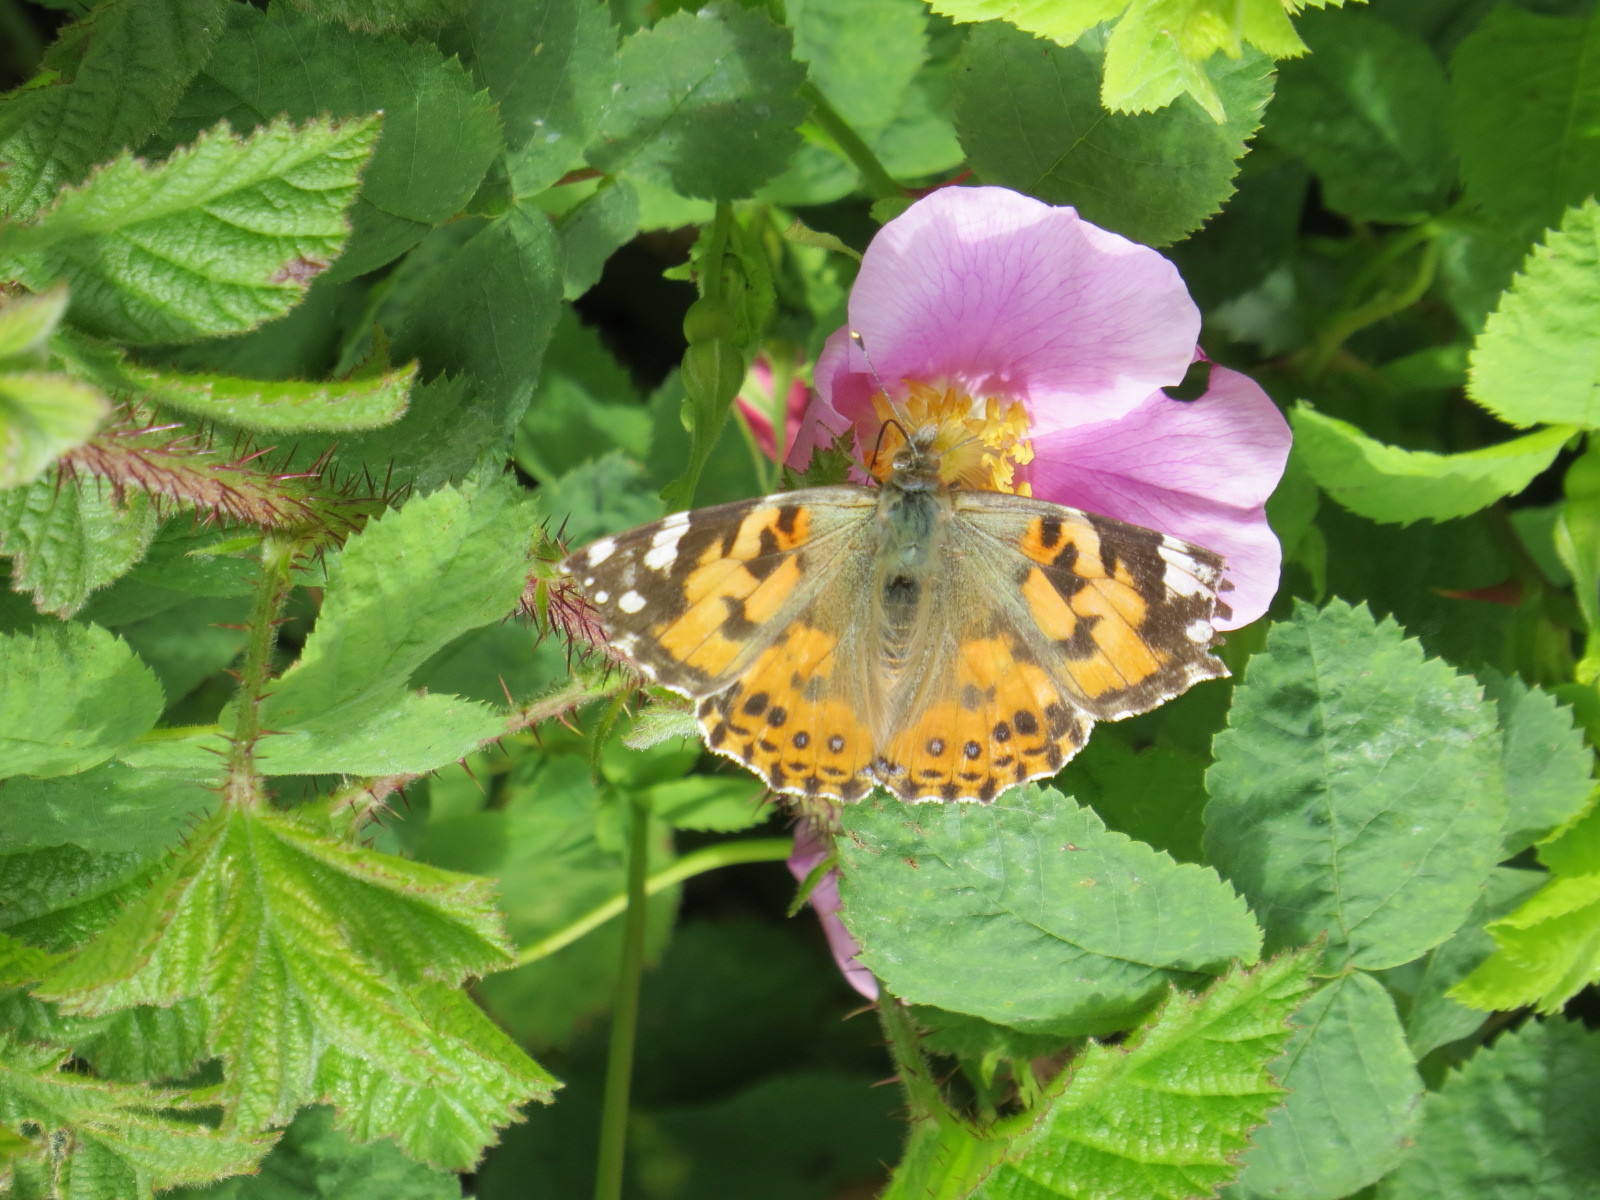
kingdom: Animalia
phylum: Arthropoda
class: Insecta
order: Lepidoptera
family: Nymphalidae
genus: Vanessa
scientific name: Vanessa cardui
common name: Painted lady
